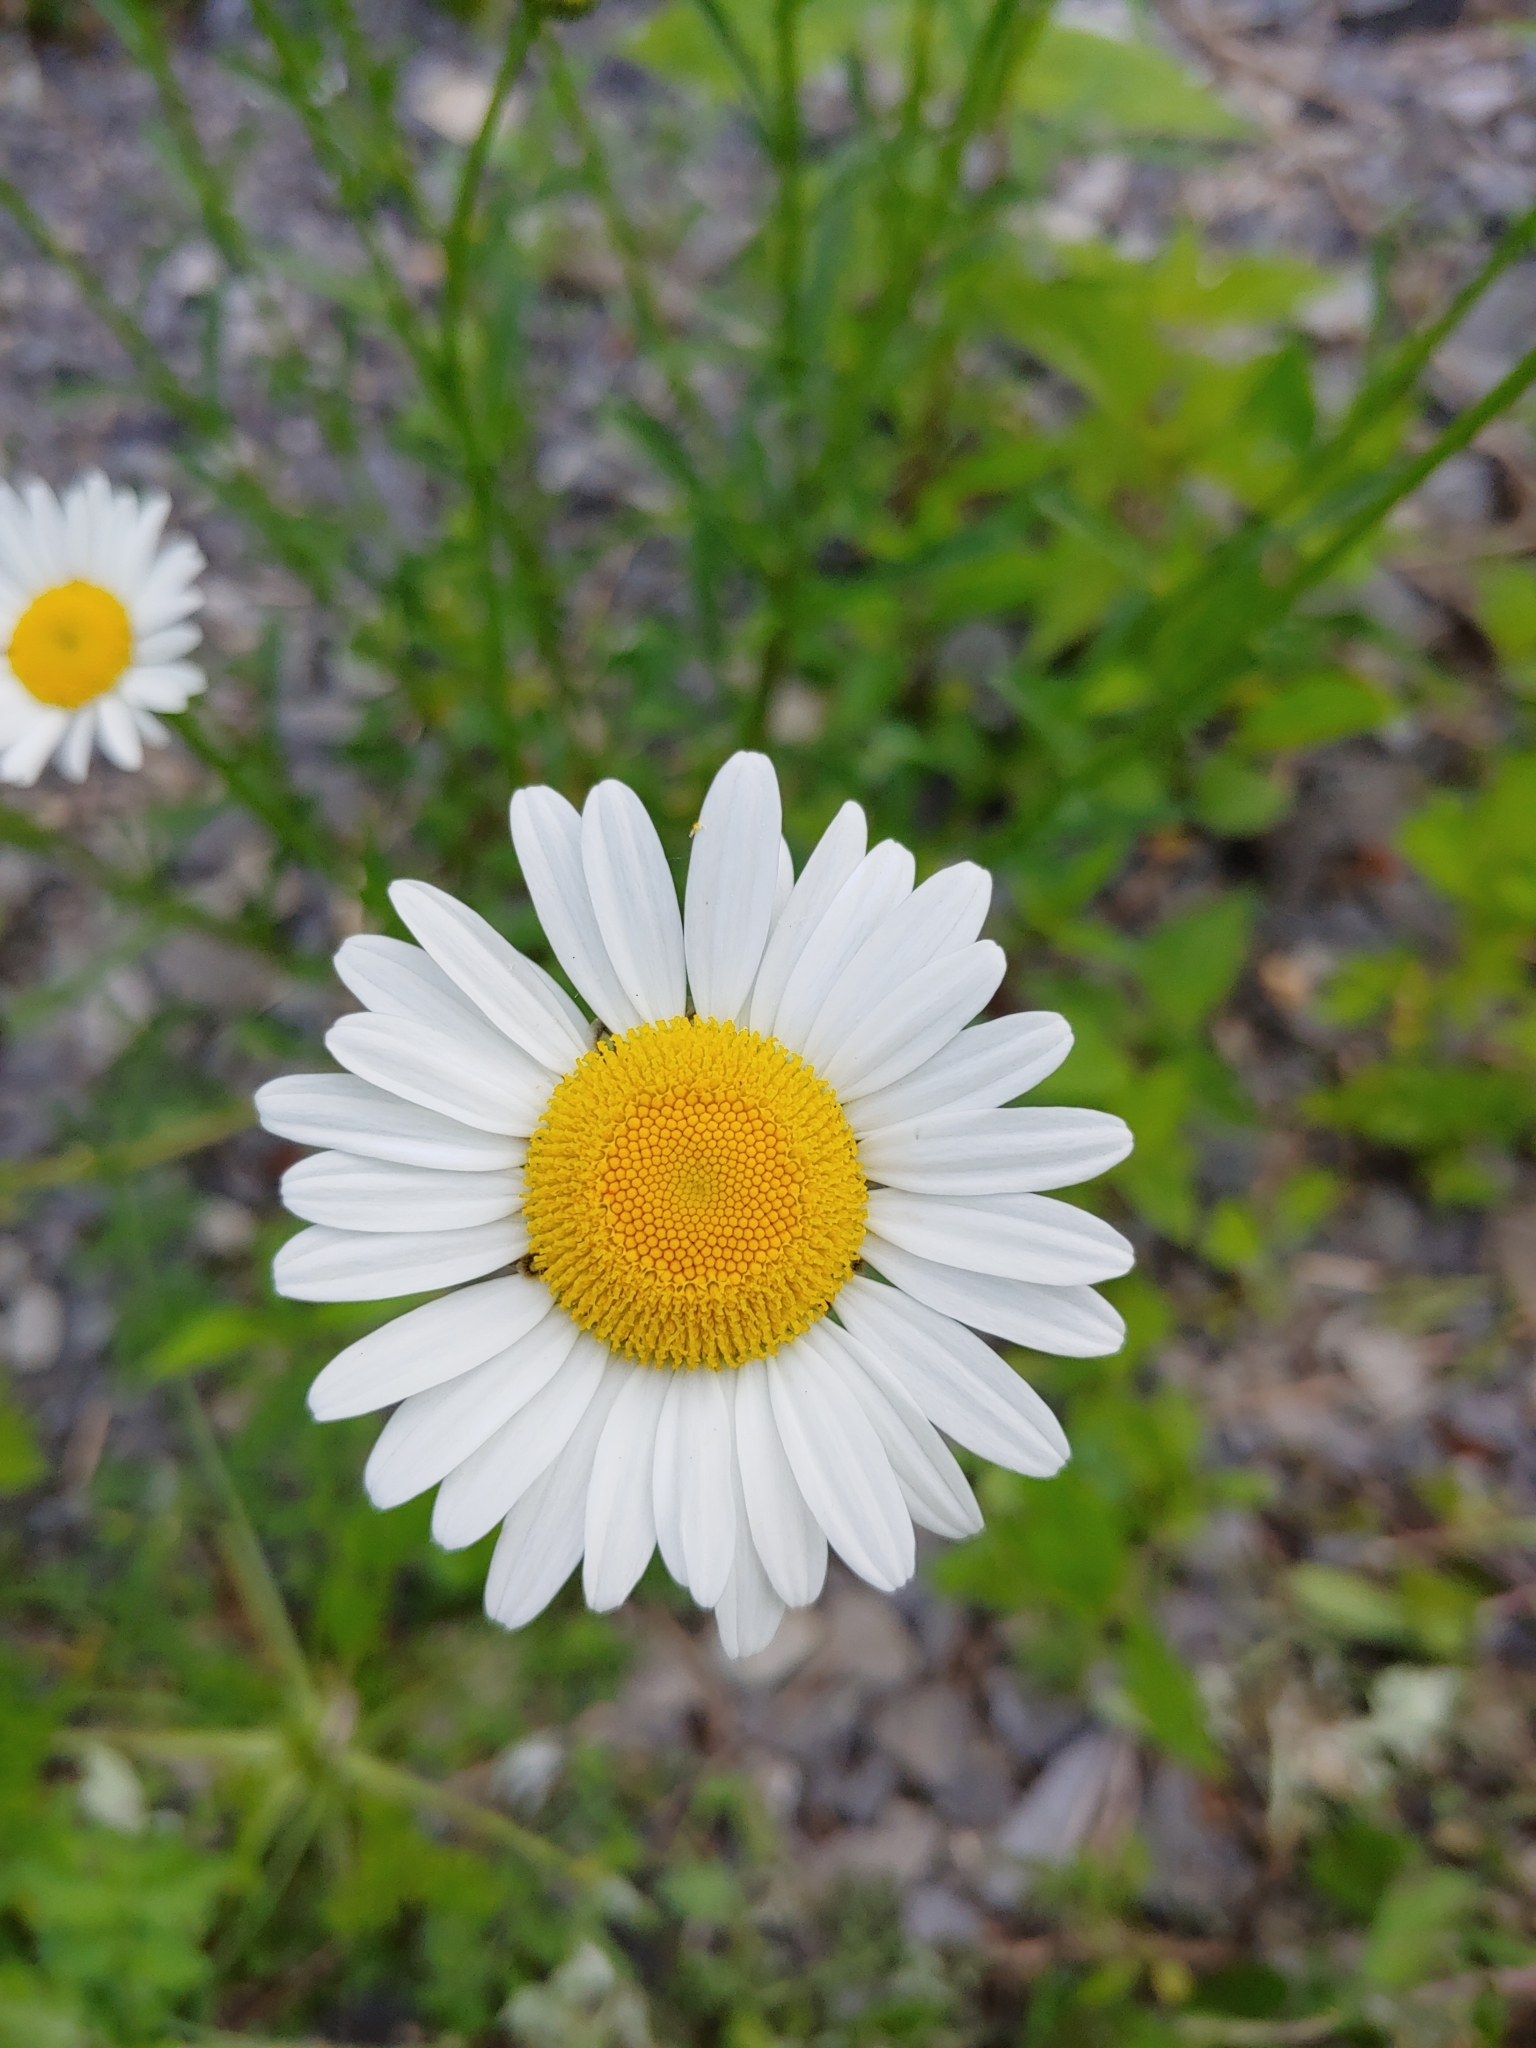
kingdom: Plantae
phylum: Tracheophyta
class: Magnoliopsida
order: Asterales
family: Asteraceae
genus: Leucanthemum
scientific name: Leucanthemum vulgare
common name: Oxeye daisy
